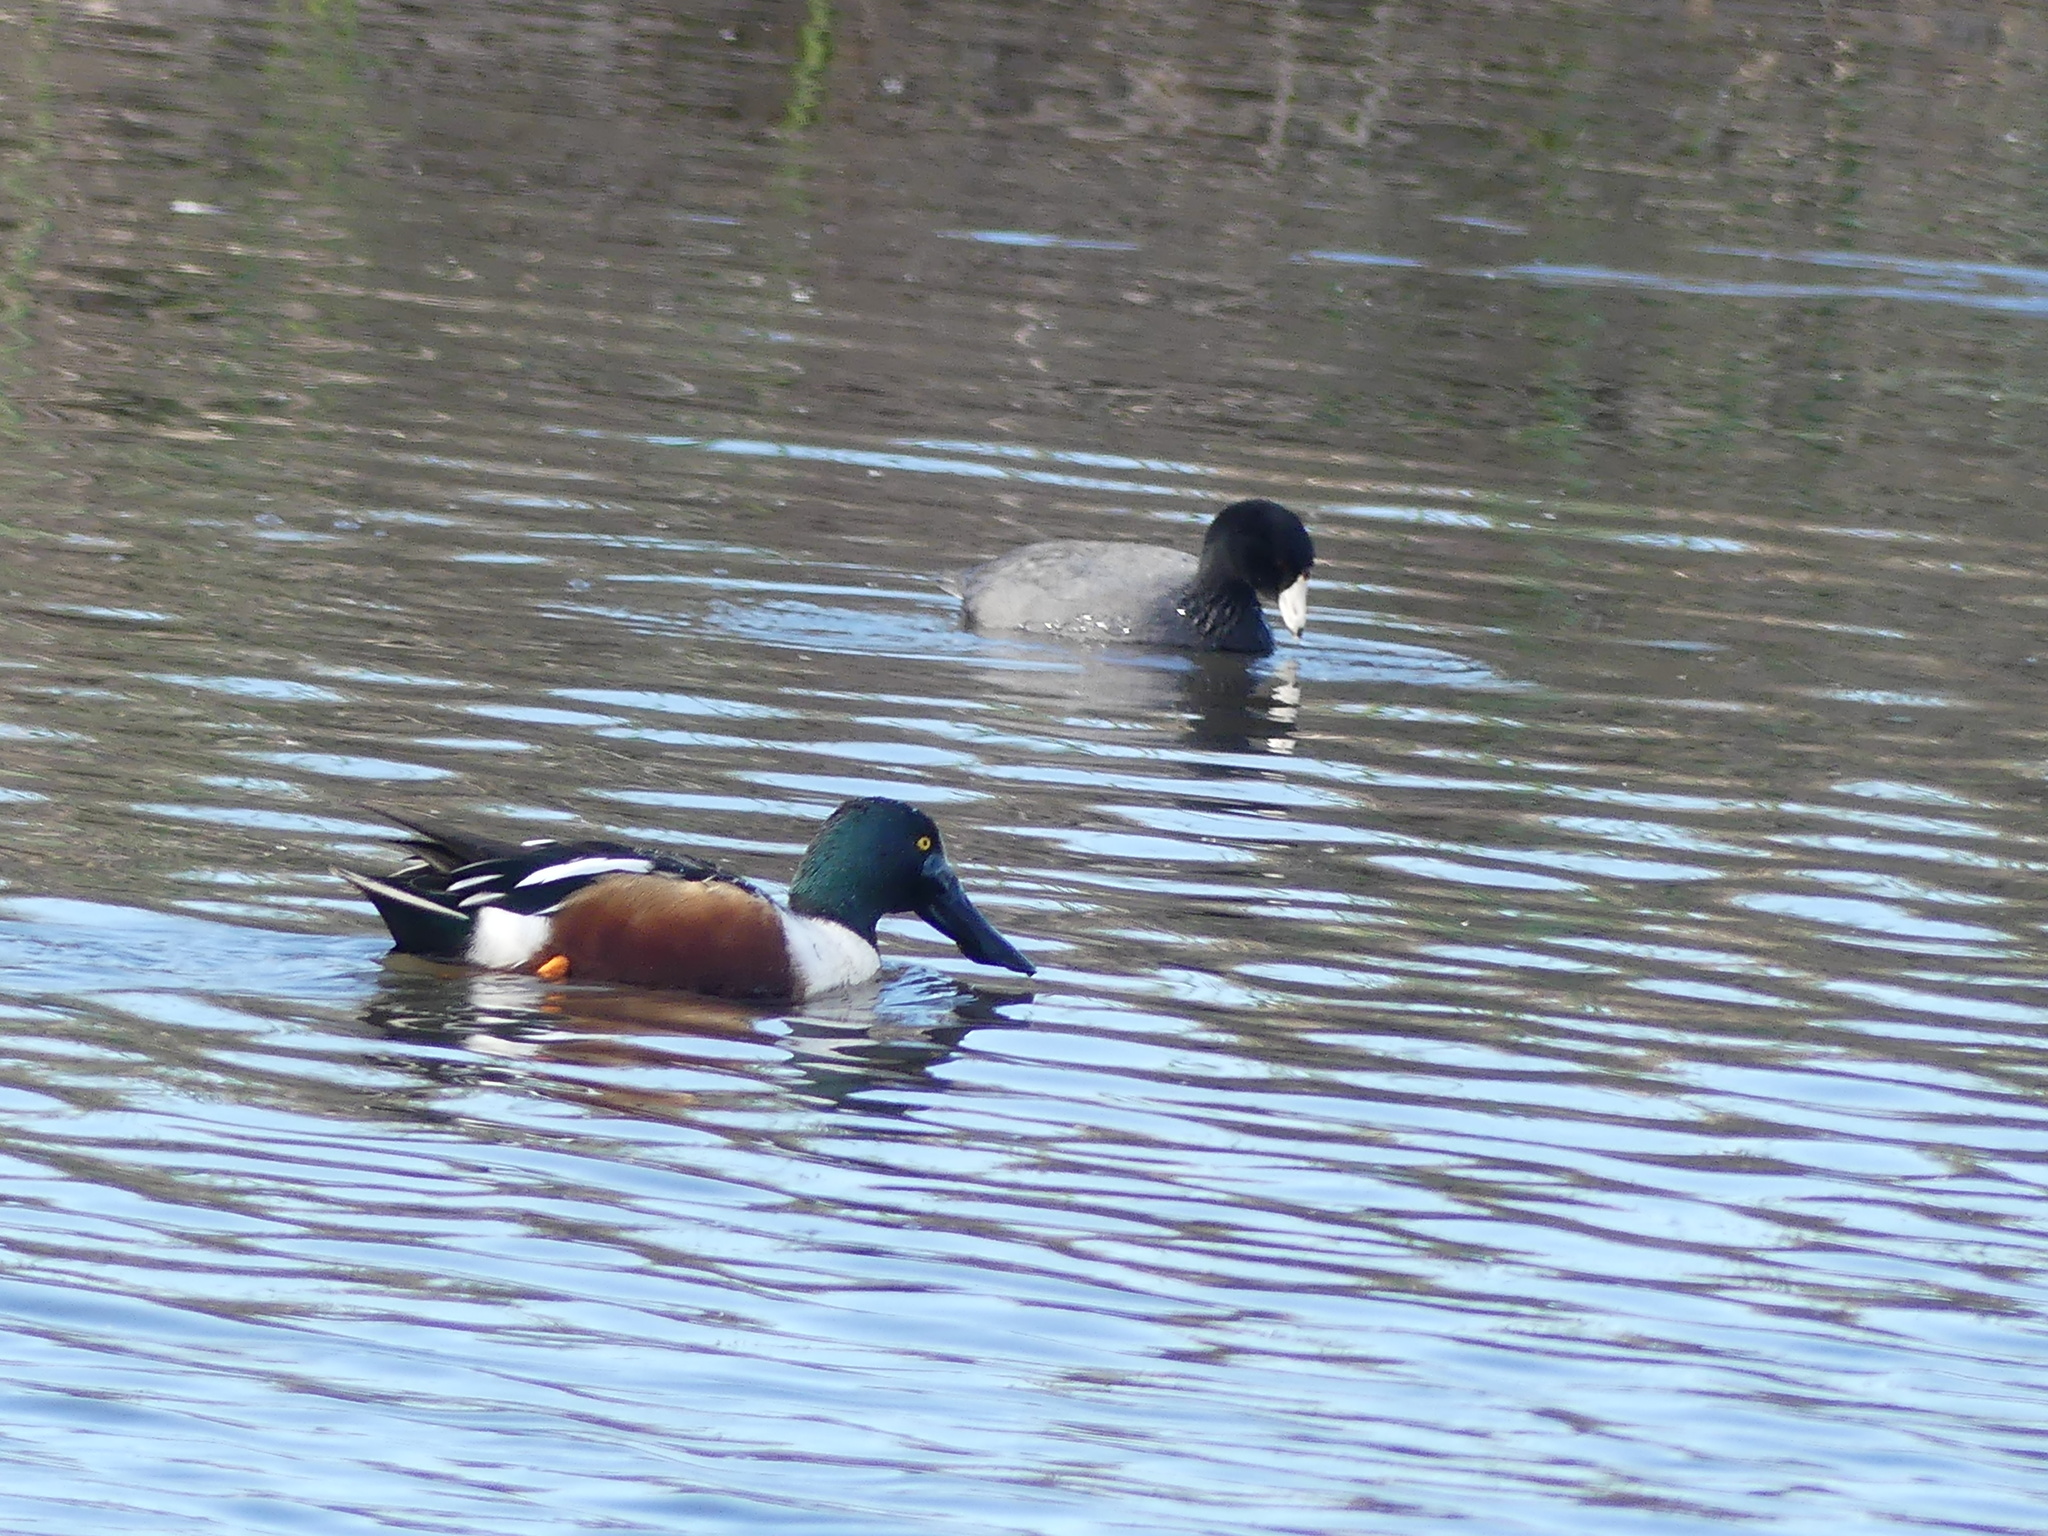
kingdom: Animalia
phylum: Chordata
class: Aves
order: Anseriformes
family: Anatidae
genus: Spatula
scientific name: Spatula clypeata
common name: Northern shoveler
